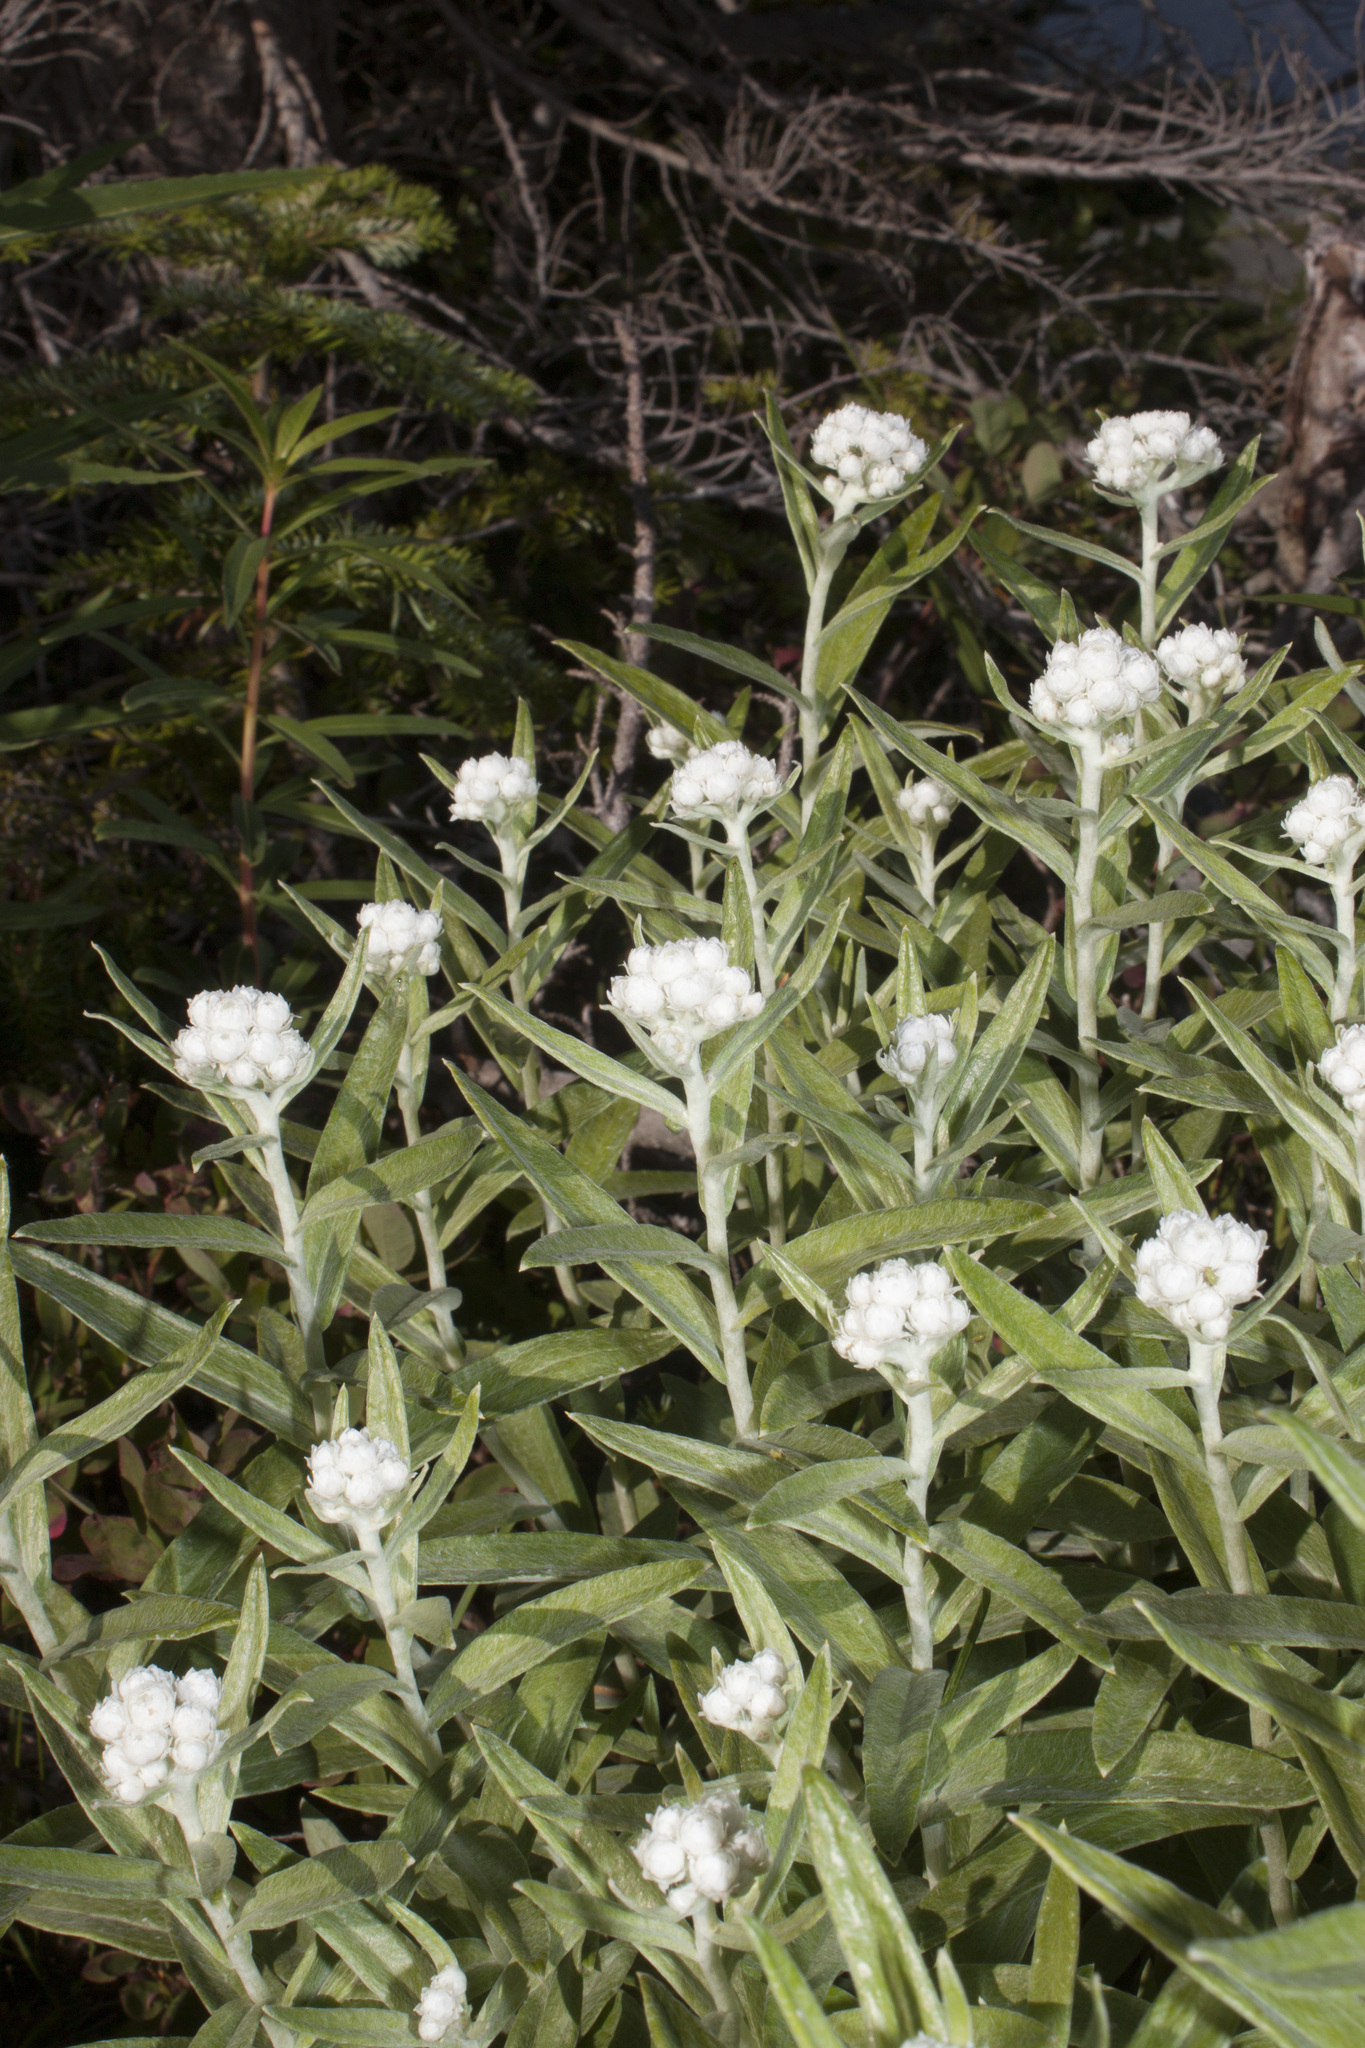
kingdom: Plantae
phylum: Tracheophyta
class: Magnoliopsida
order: Asterales
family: Asteraceae
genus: Anaphalis
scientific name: Anaphalis margaritacea
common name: Pearly everlasting
